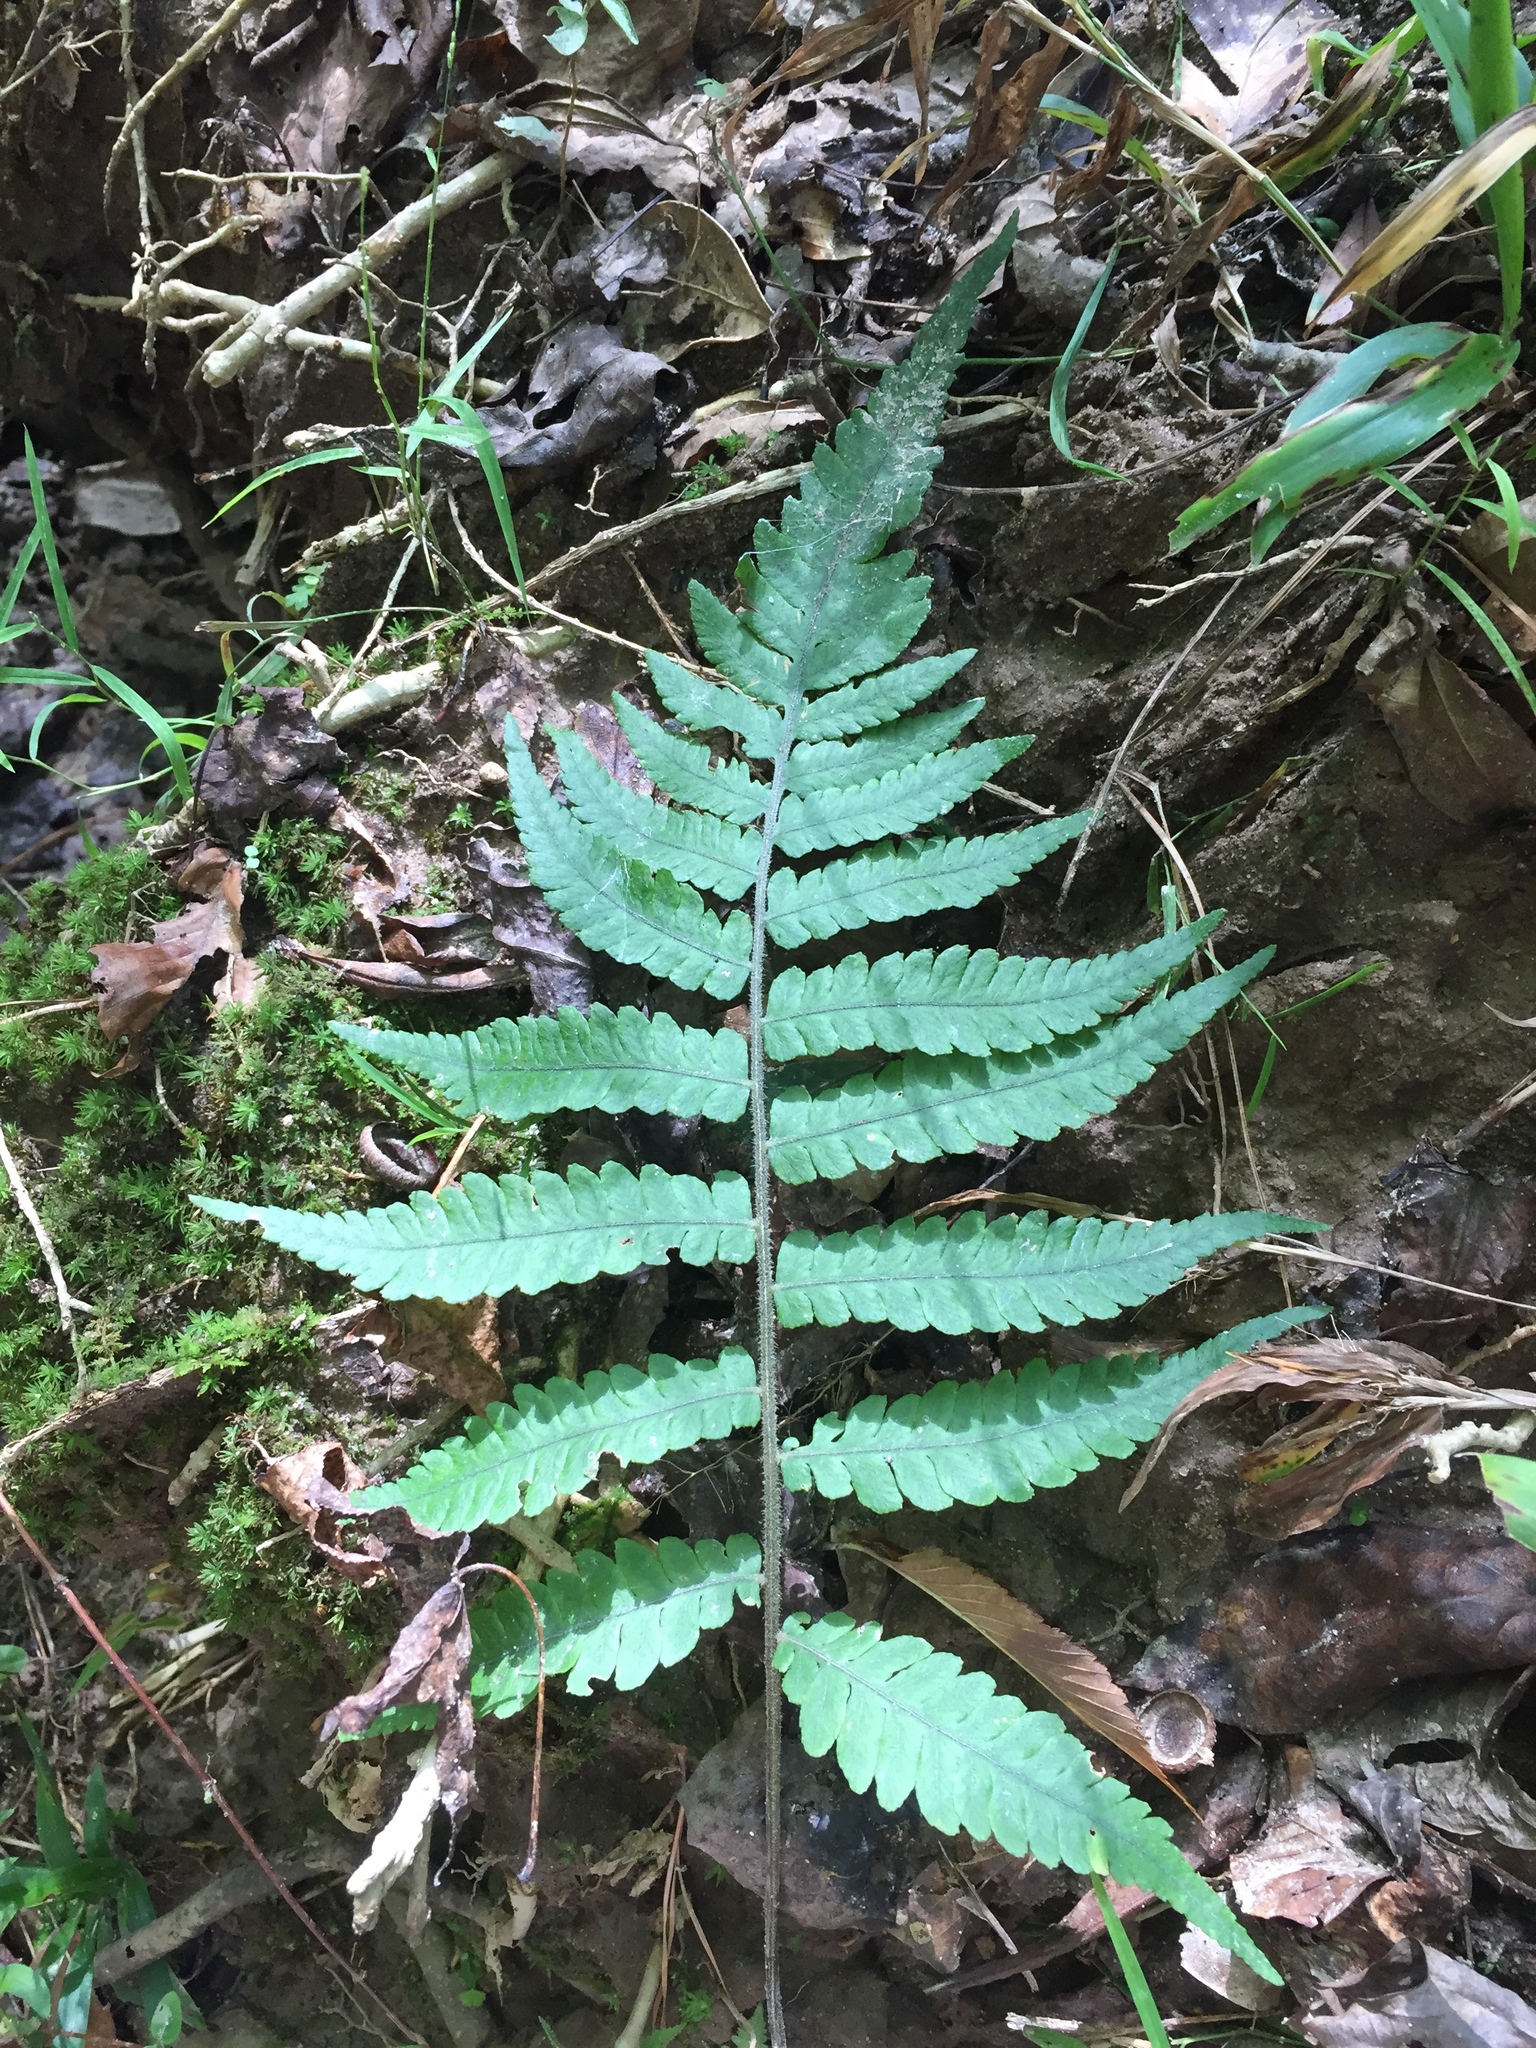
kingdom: Plantae
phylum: Tracheophyta
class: Polypodiopsida
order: Polypodiales
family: Athyriaceae
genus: Deparia
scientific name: Deparia petersenii
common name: Japanese false spleenwort
